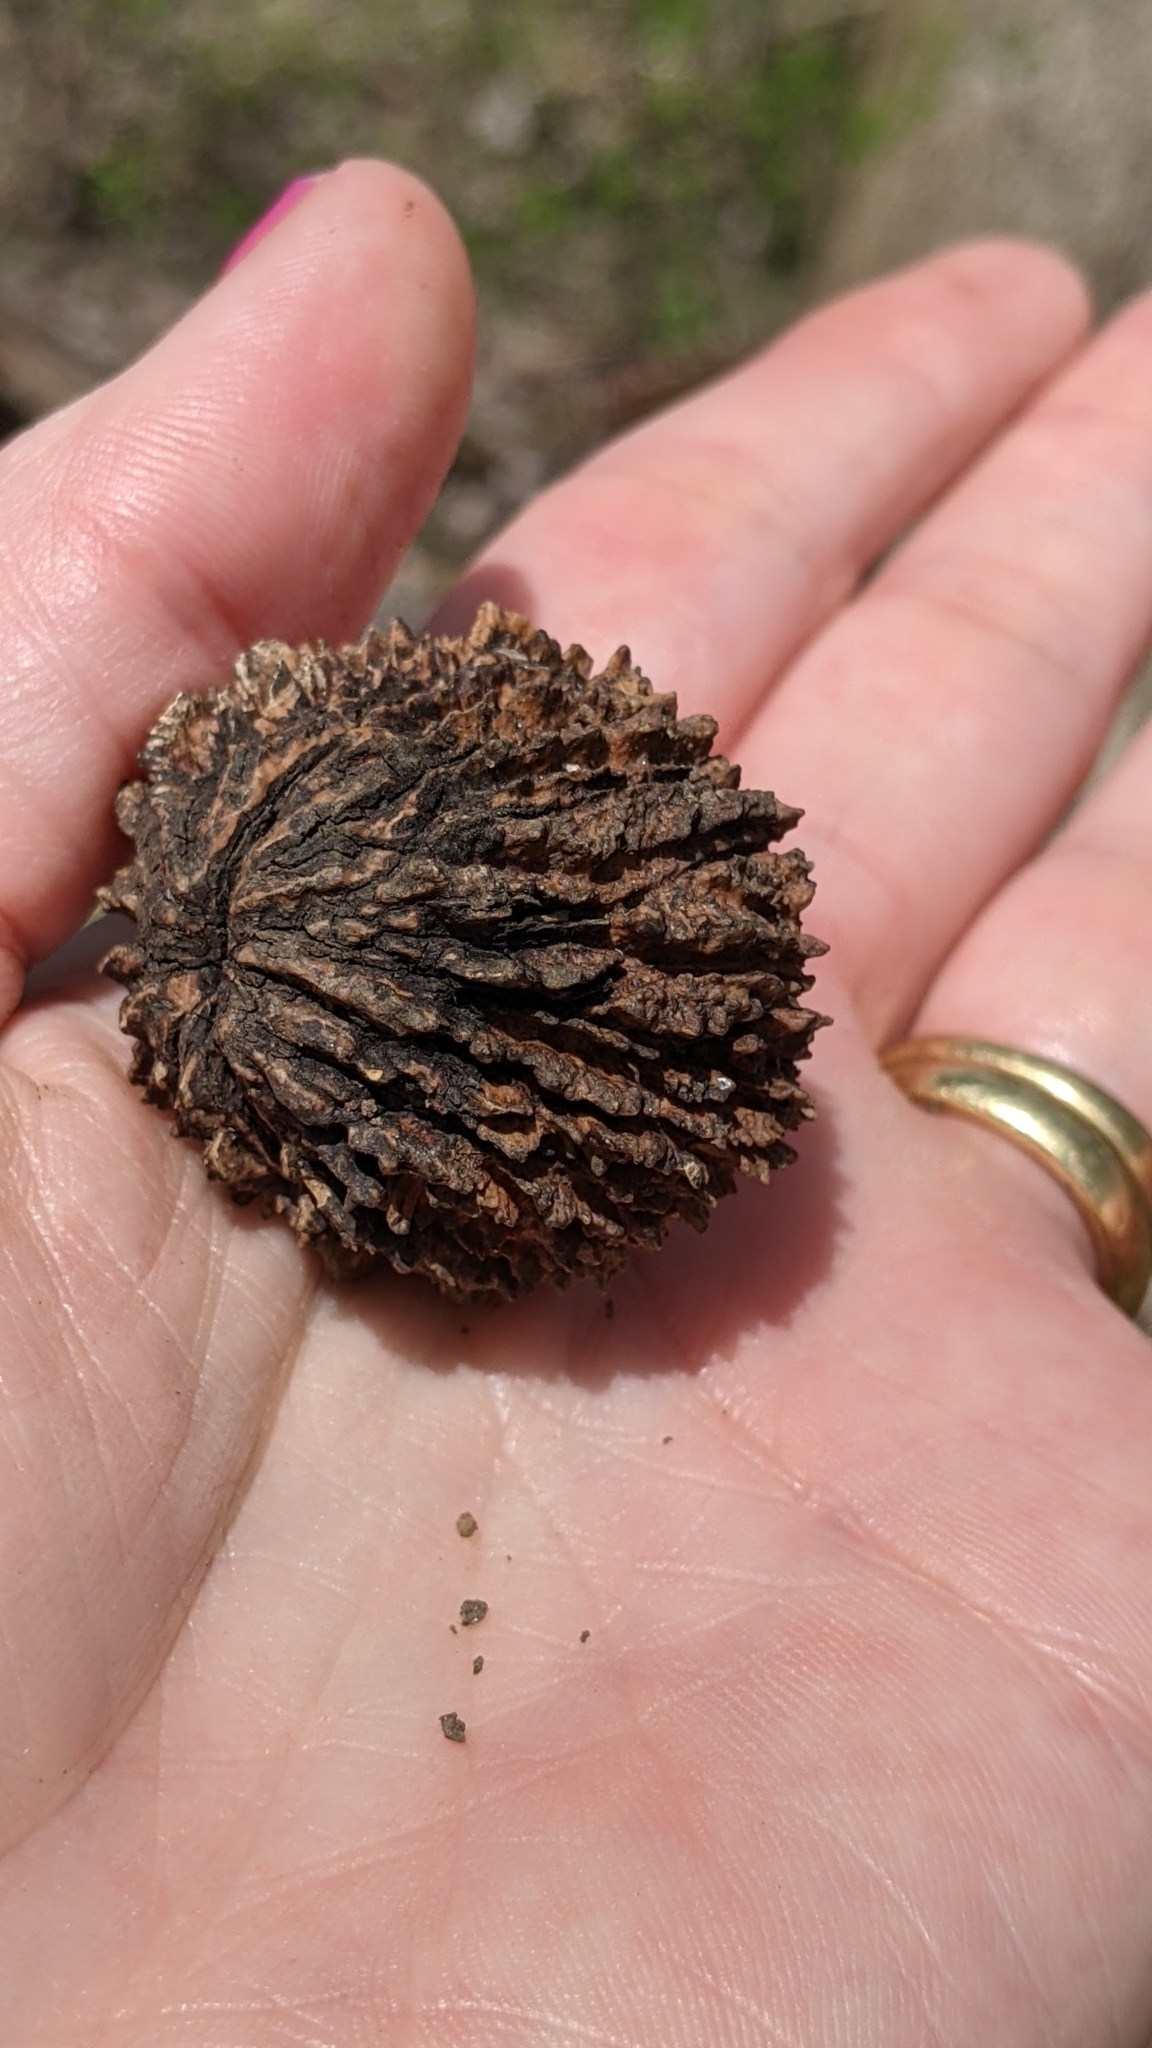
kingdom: Plantae
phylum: Tracheophyta
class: Magnoliopsida
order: Fagales
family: Juglandaceae
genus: Juglans
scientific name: Juglans nigra
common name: Black walnut
